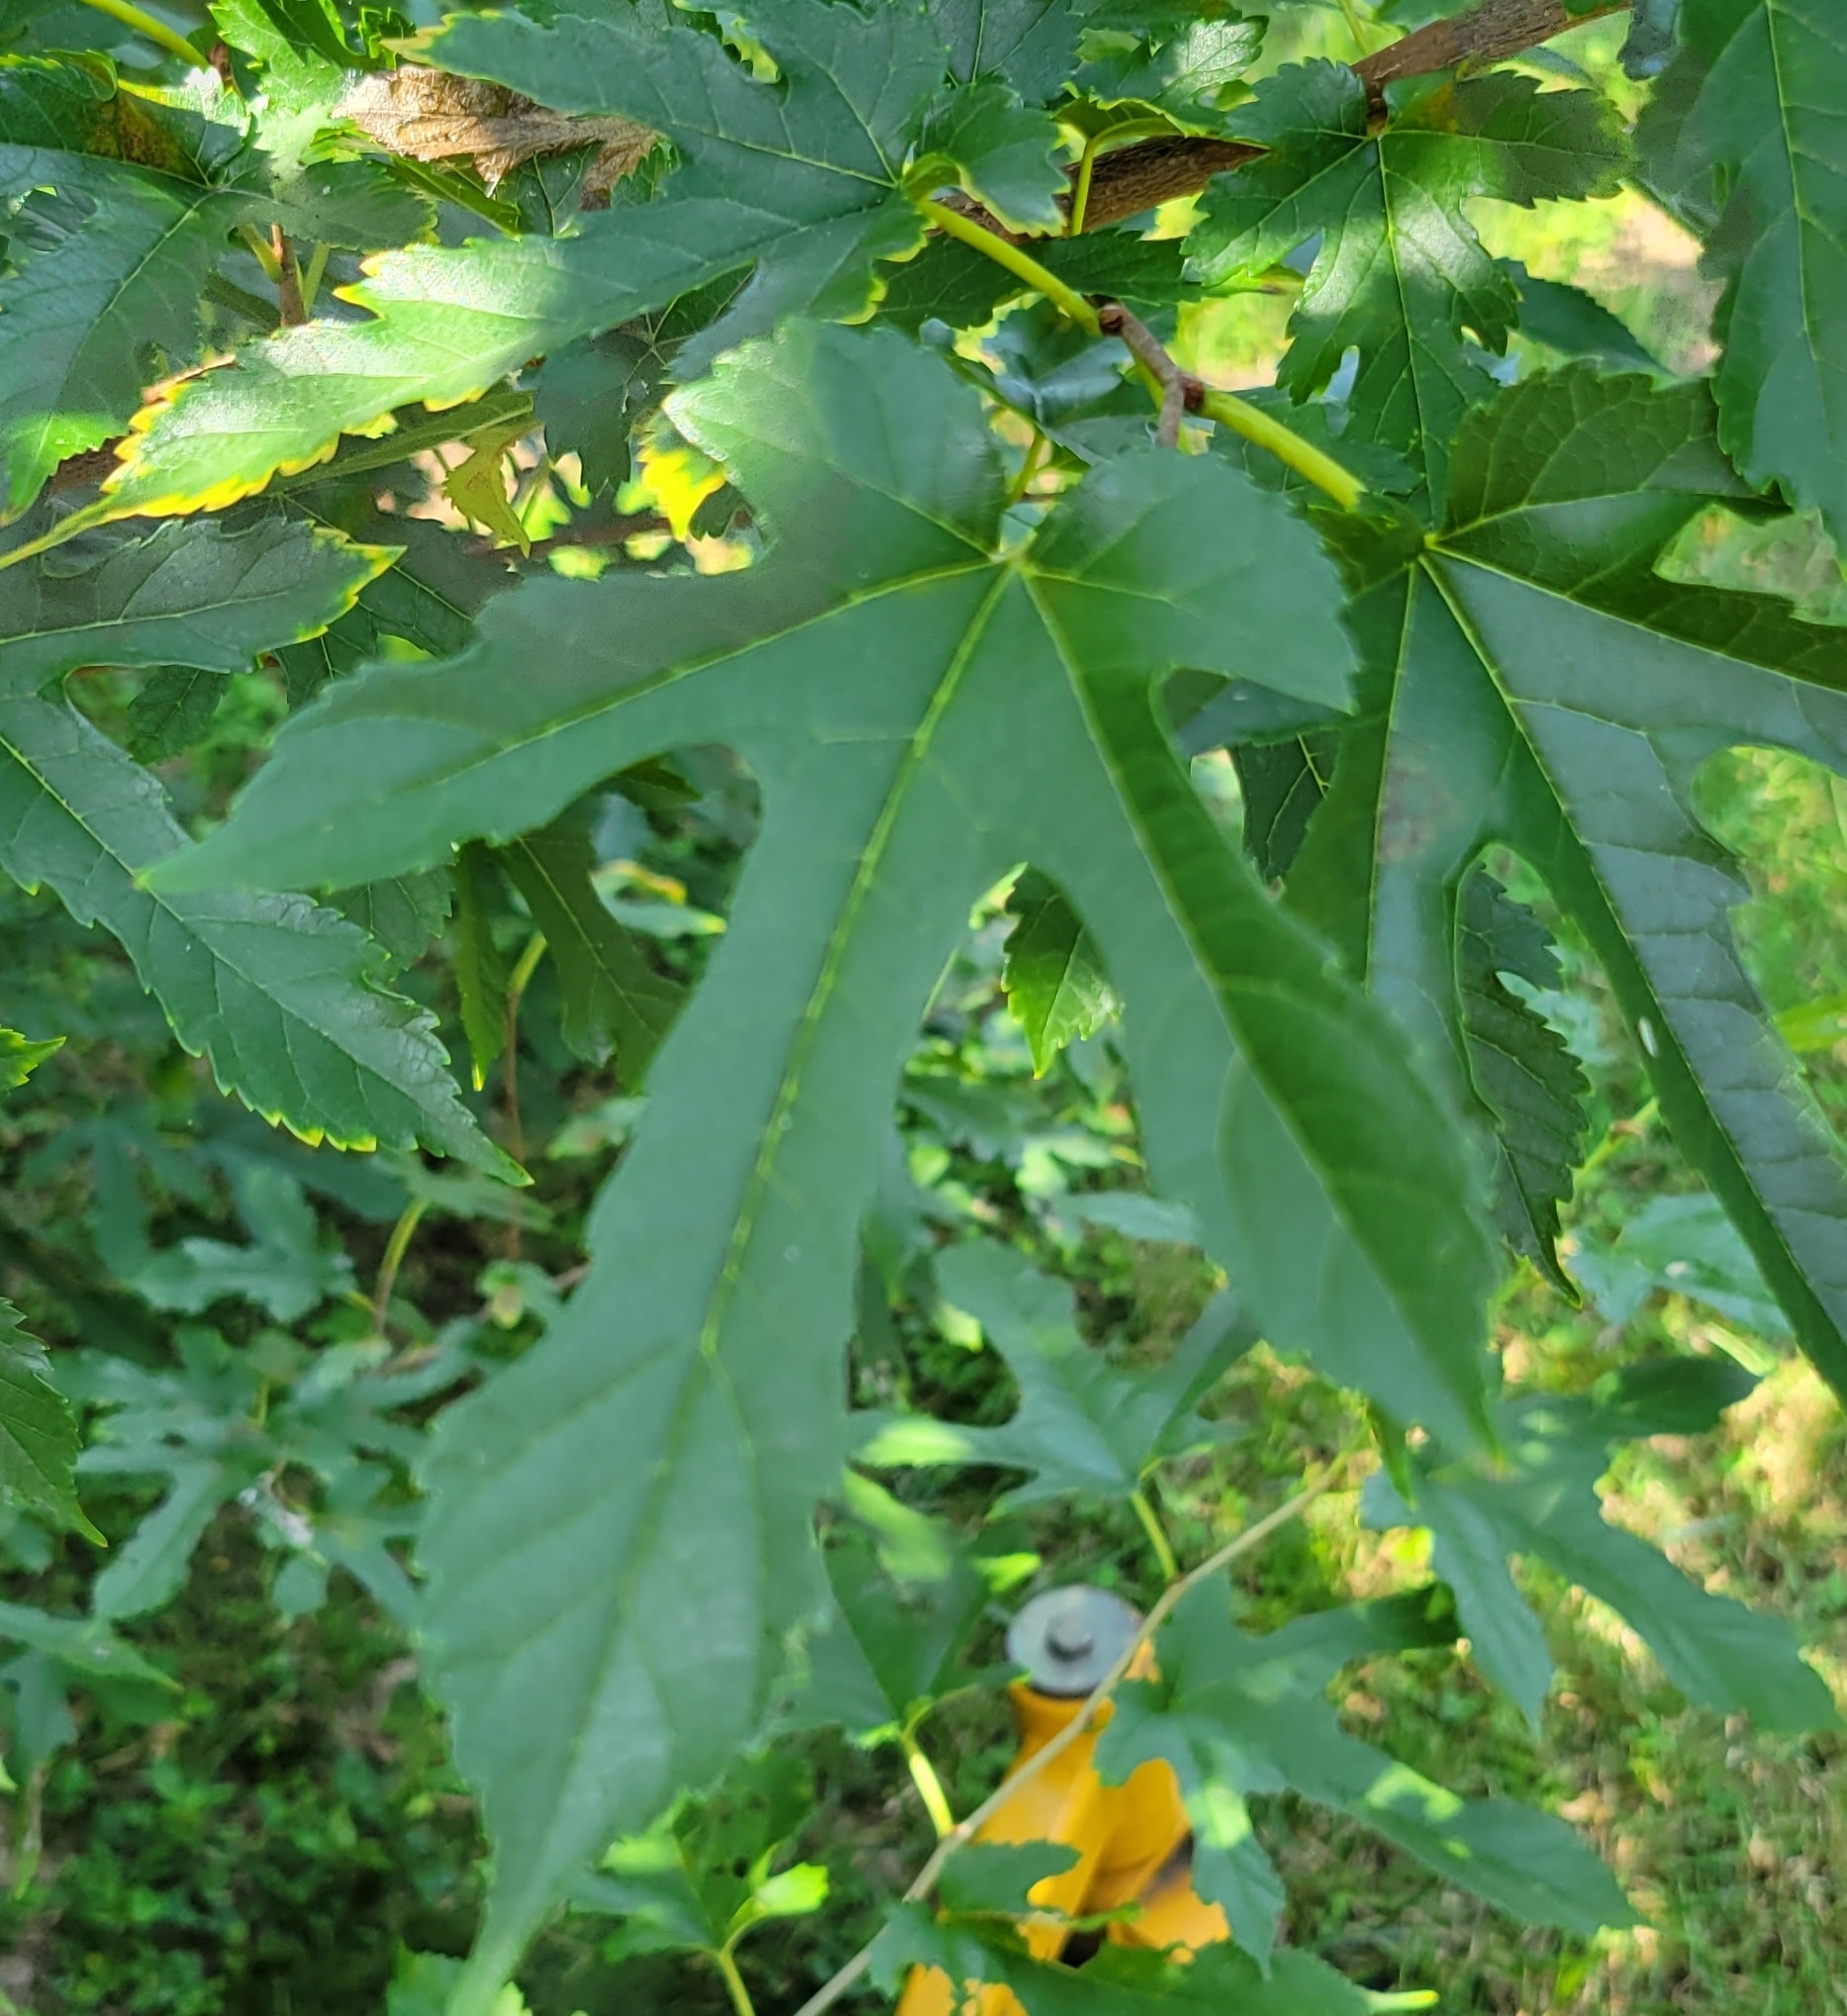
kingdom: Plantae
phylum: Tracheophyta
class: Magnoliopsida
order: Rosales
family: Moraceae
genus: Morus
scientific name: Morus indica
